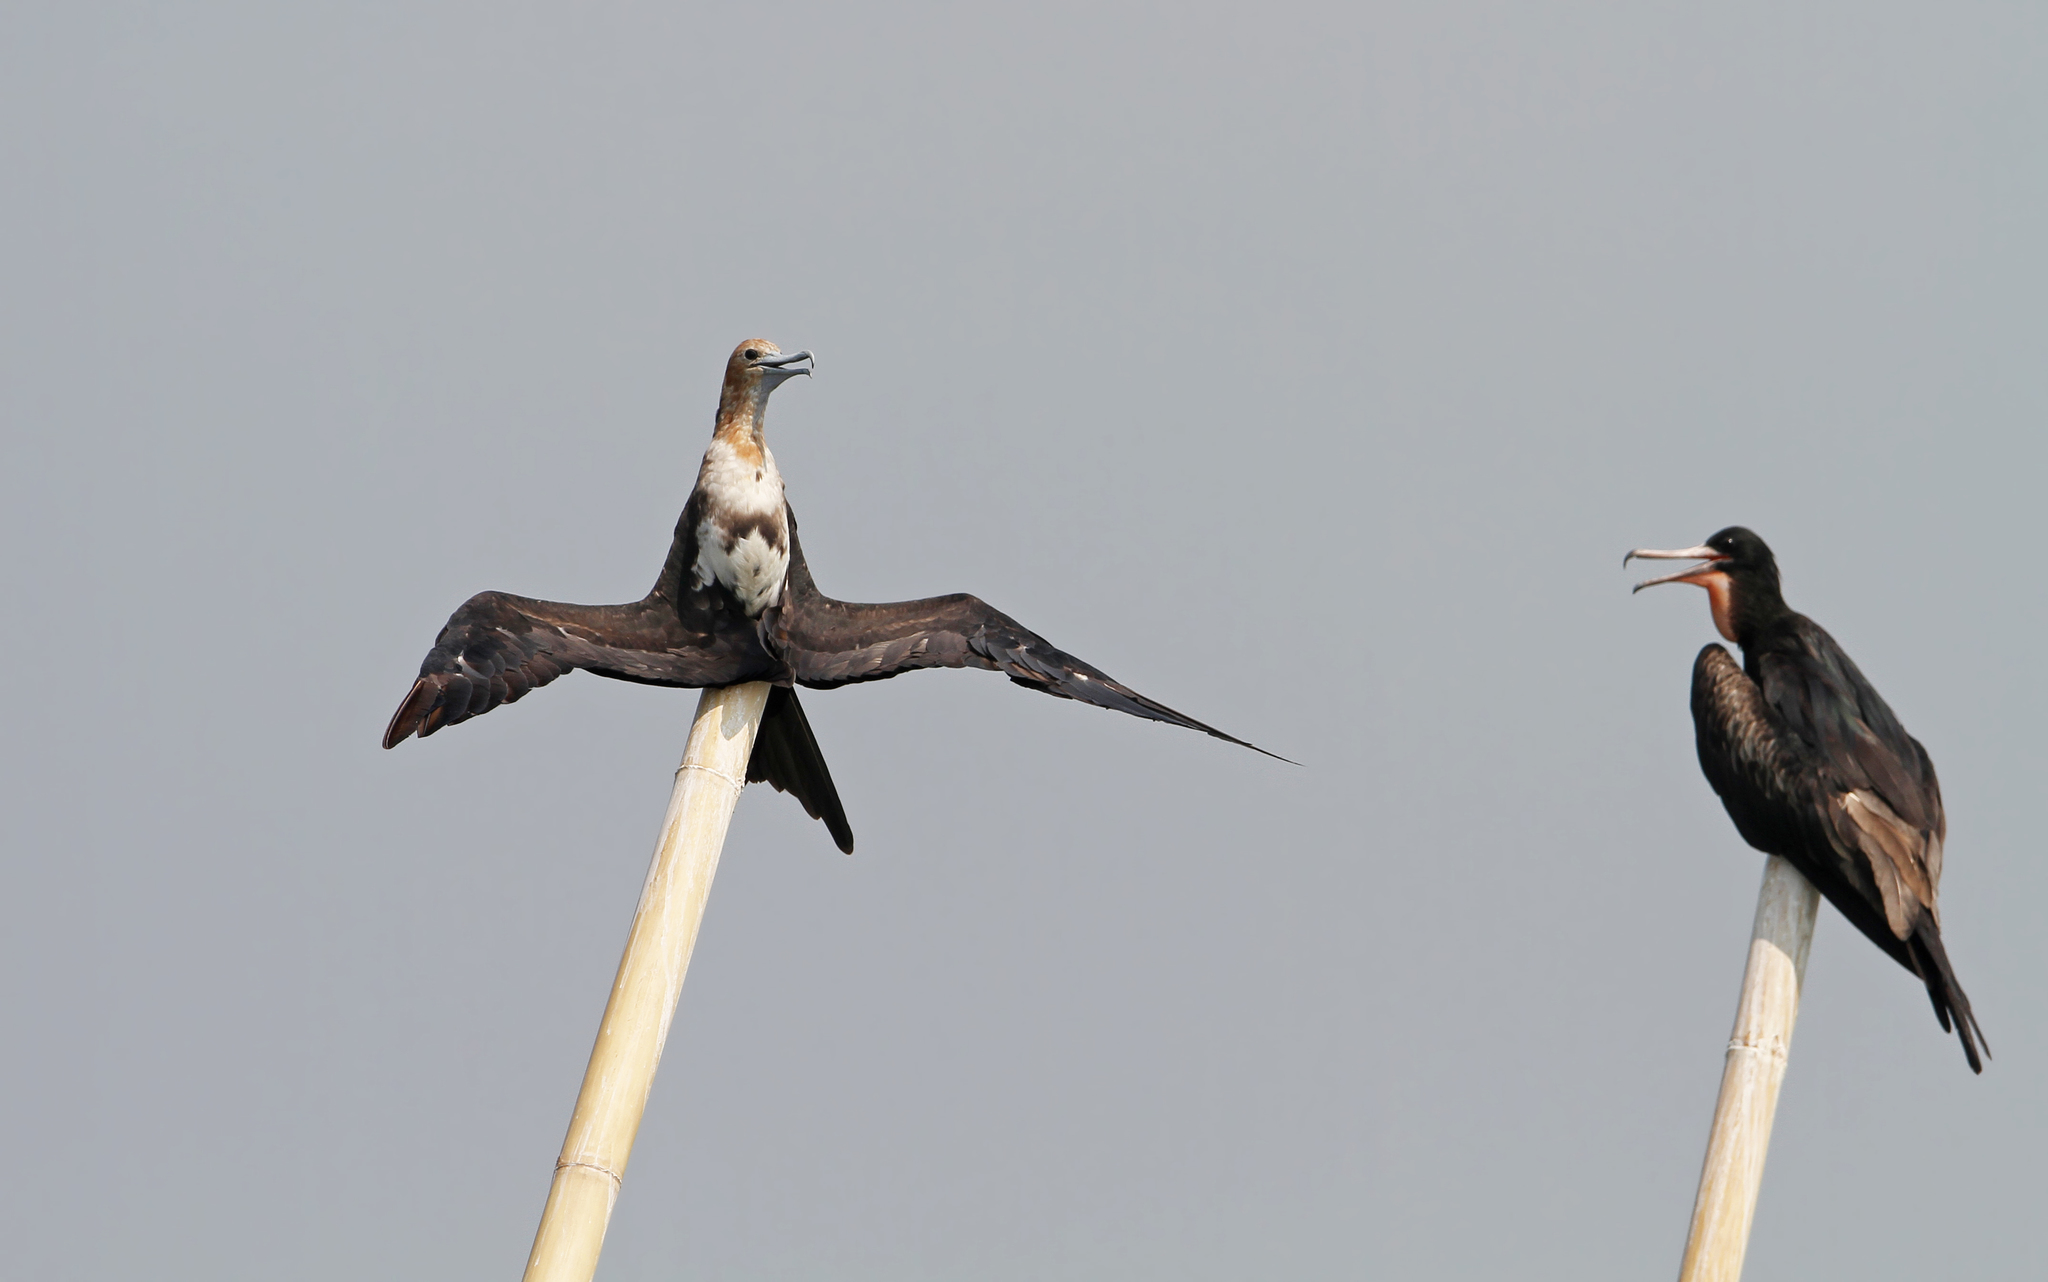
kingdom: Animalia
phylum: Chordata
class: Aves
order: Suliformes
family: Fregatidae
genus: Fregata
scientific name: Fregata ariel
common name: Lesser frigatebird
